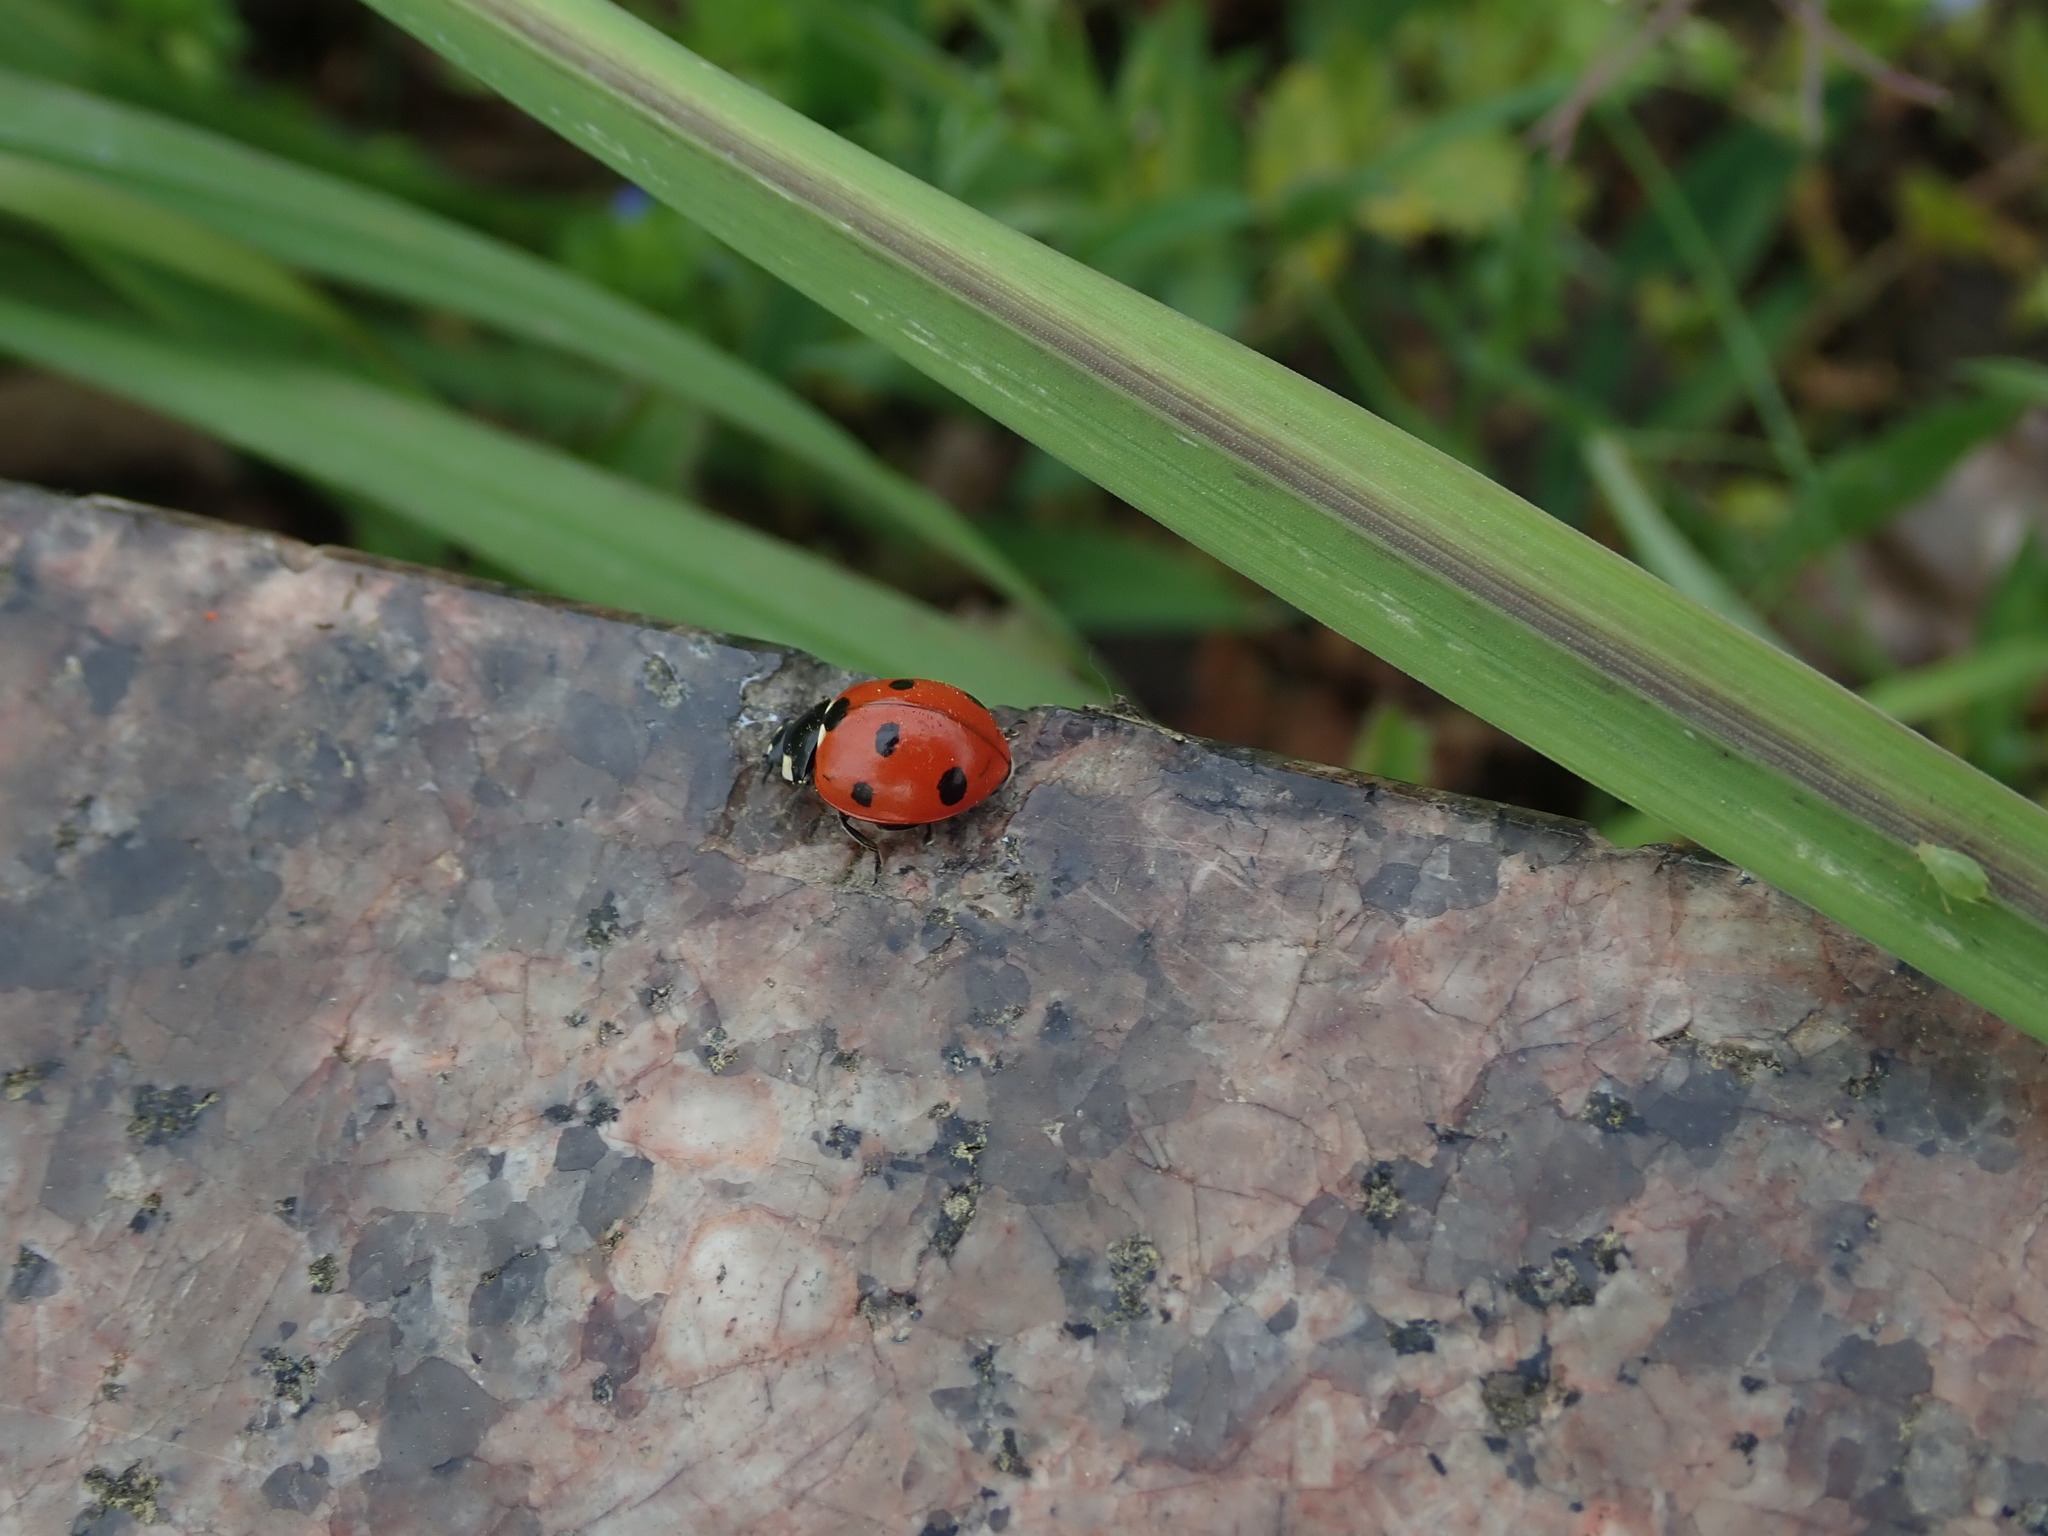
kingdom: Animalia
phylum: Arthropoda
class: Insecta
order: Coleoptera
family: Coccinellidae
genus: Coccinella
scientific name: Coccinella septempunctata
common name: Sevenspotted lady beetle
